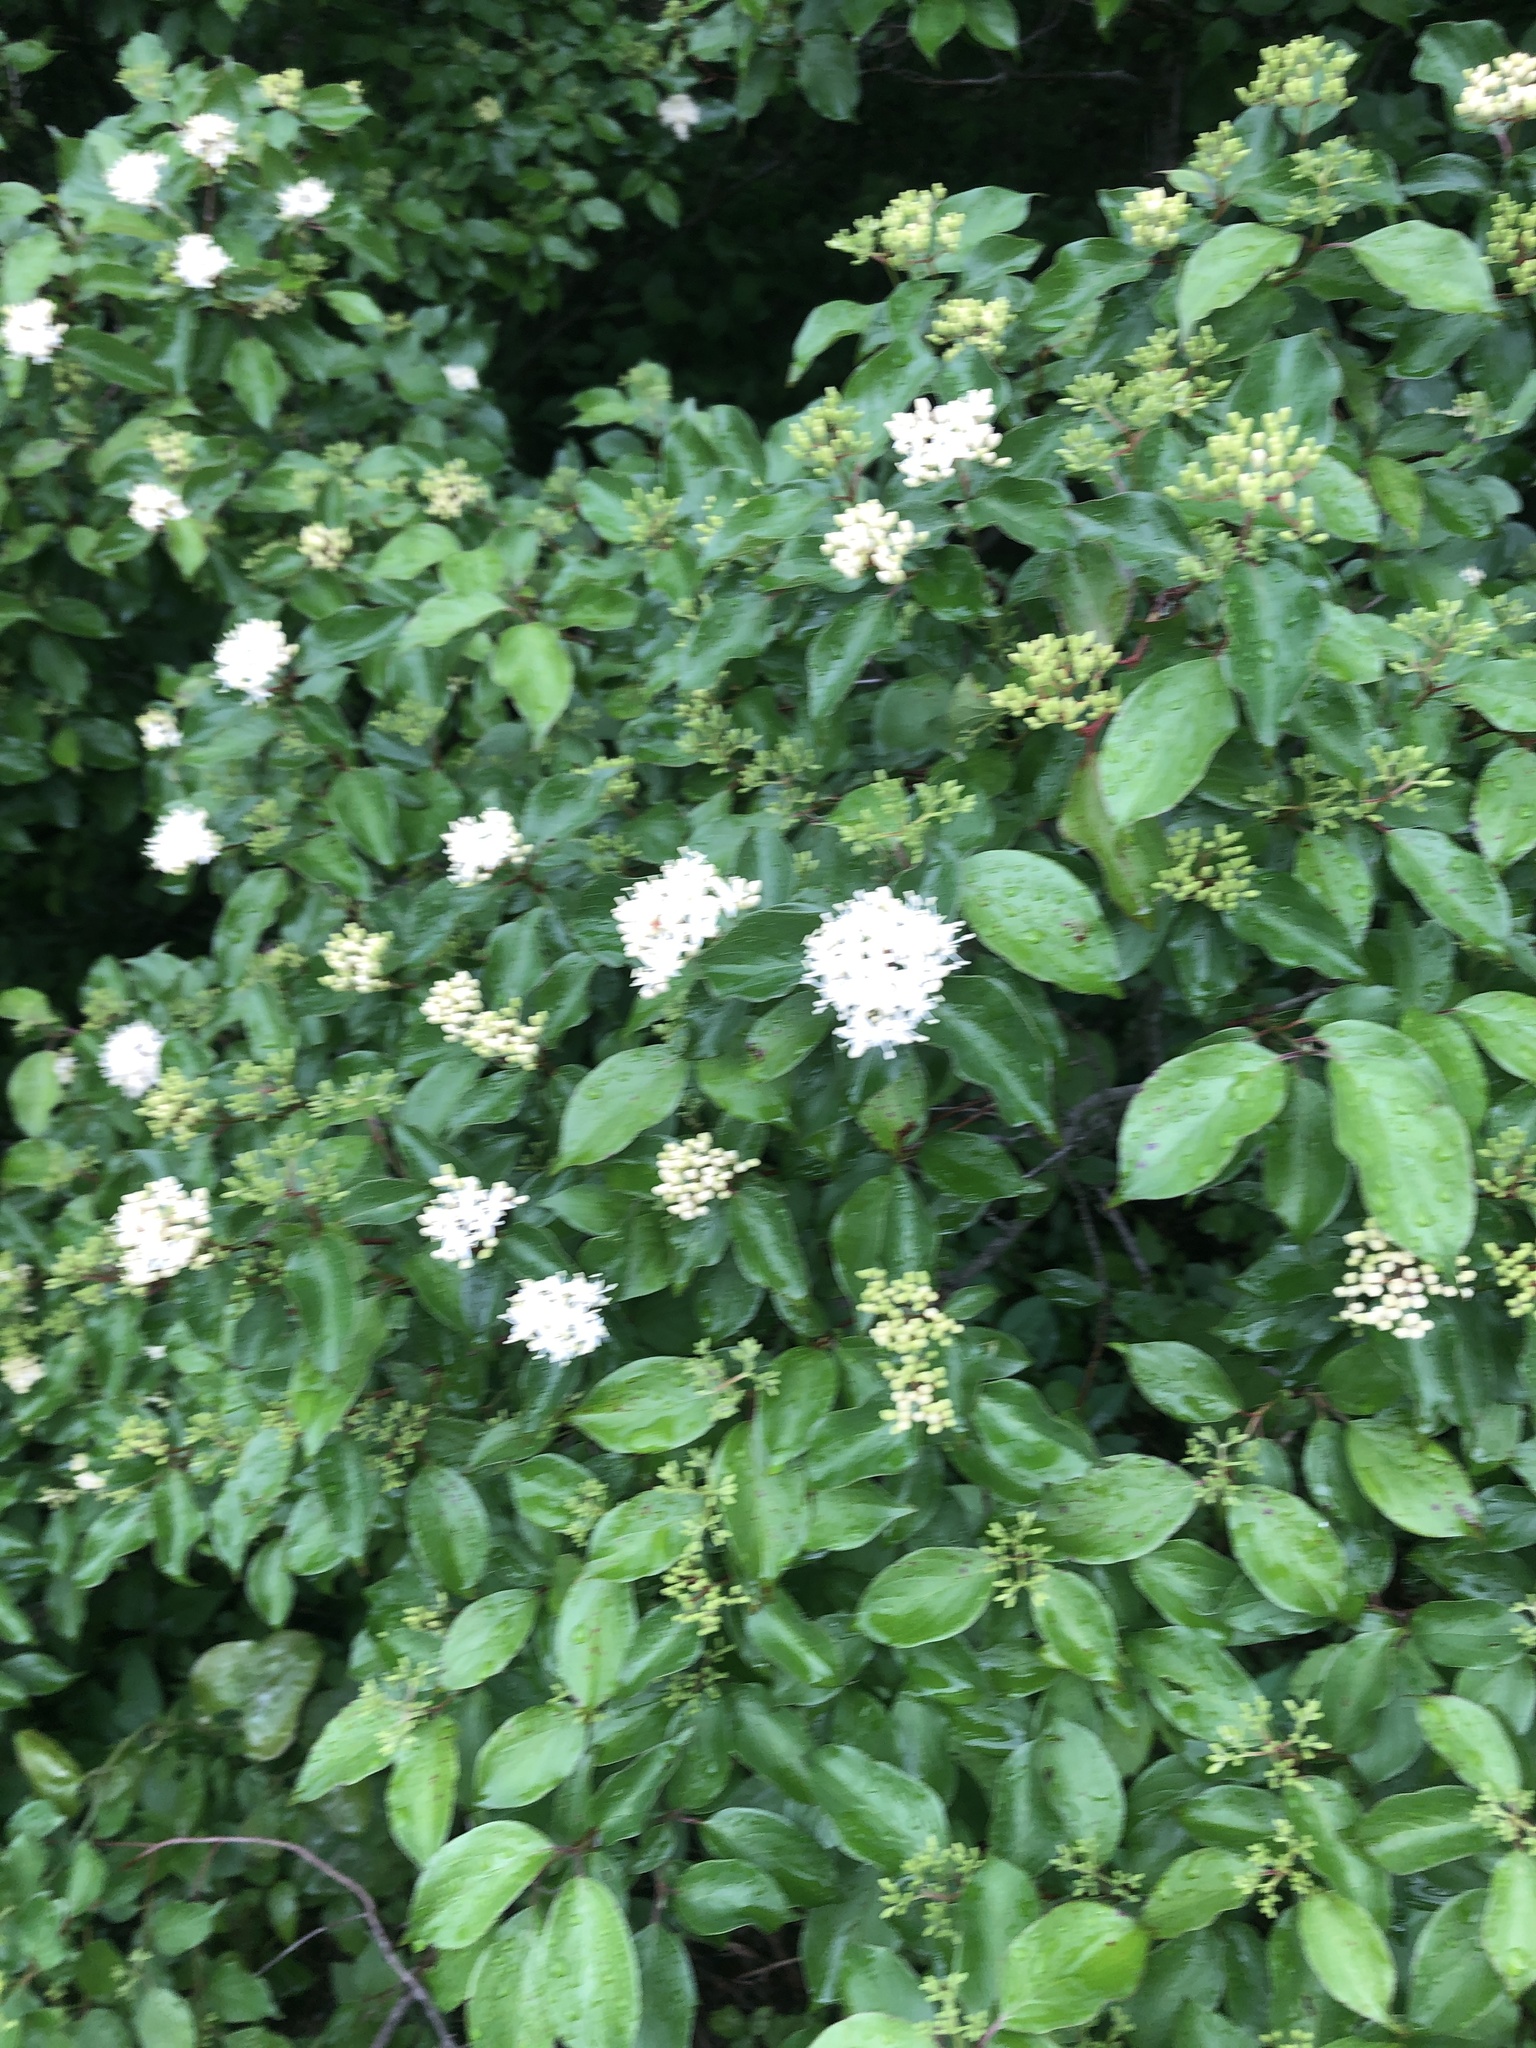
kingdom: Plantae
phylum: Tracheophyta
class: Magnoliopsida
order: Cornales
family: Cornaceae
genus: Cornus
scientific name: Cornus drummondii
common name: Rough-leaf dogwood
